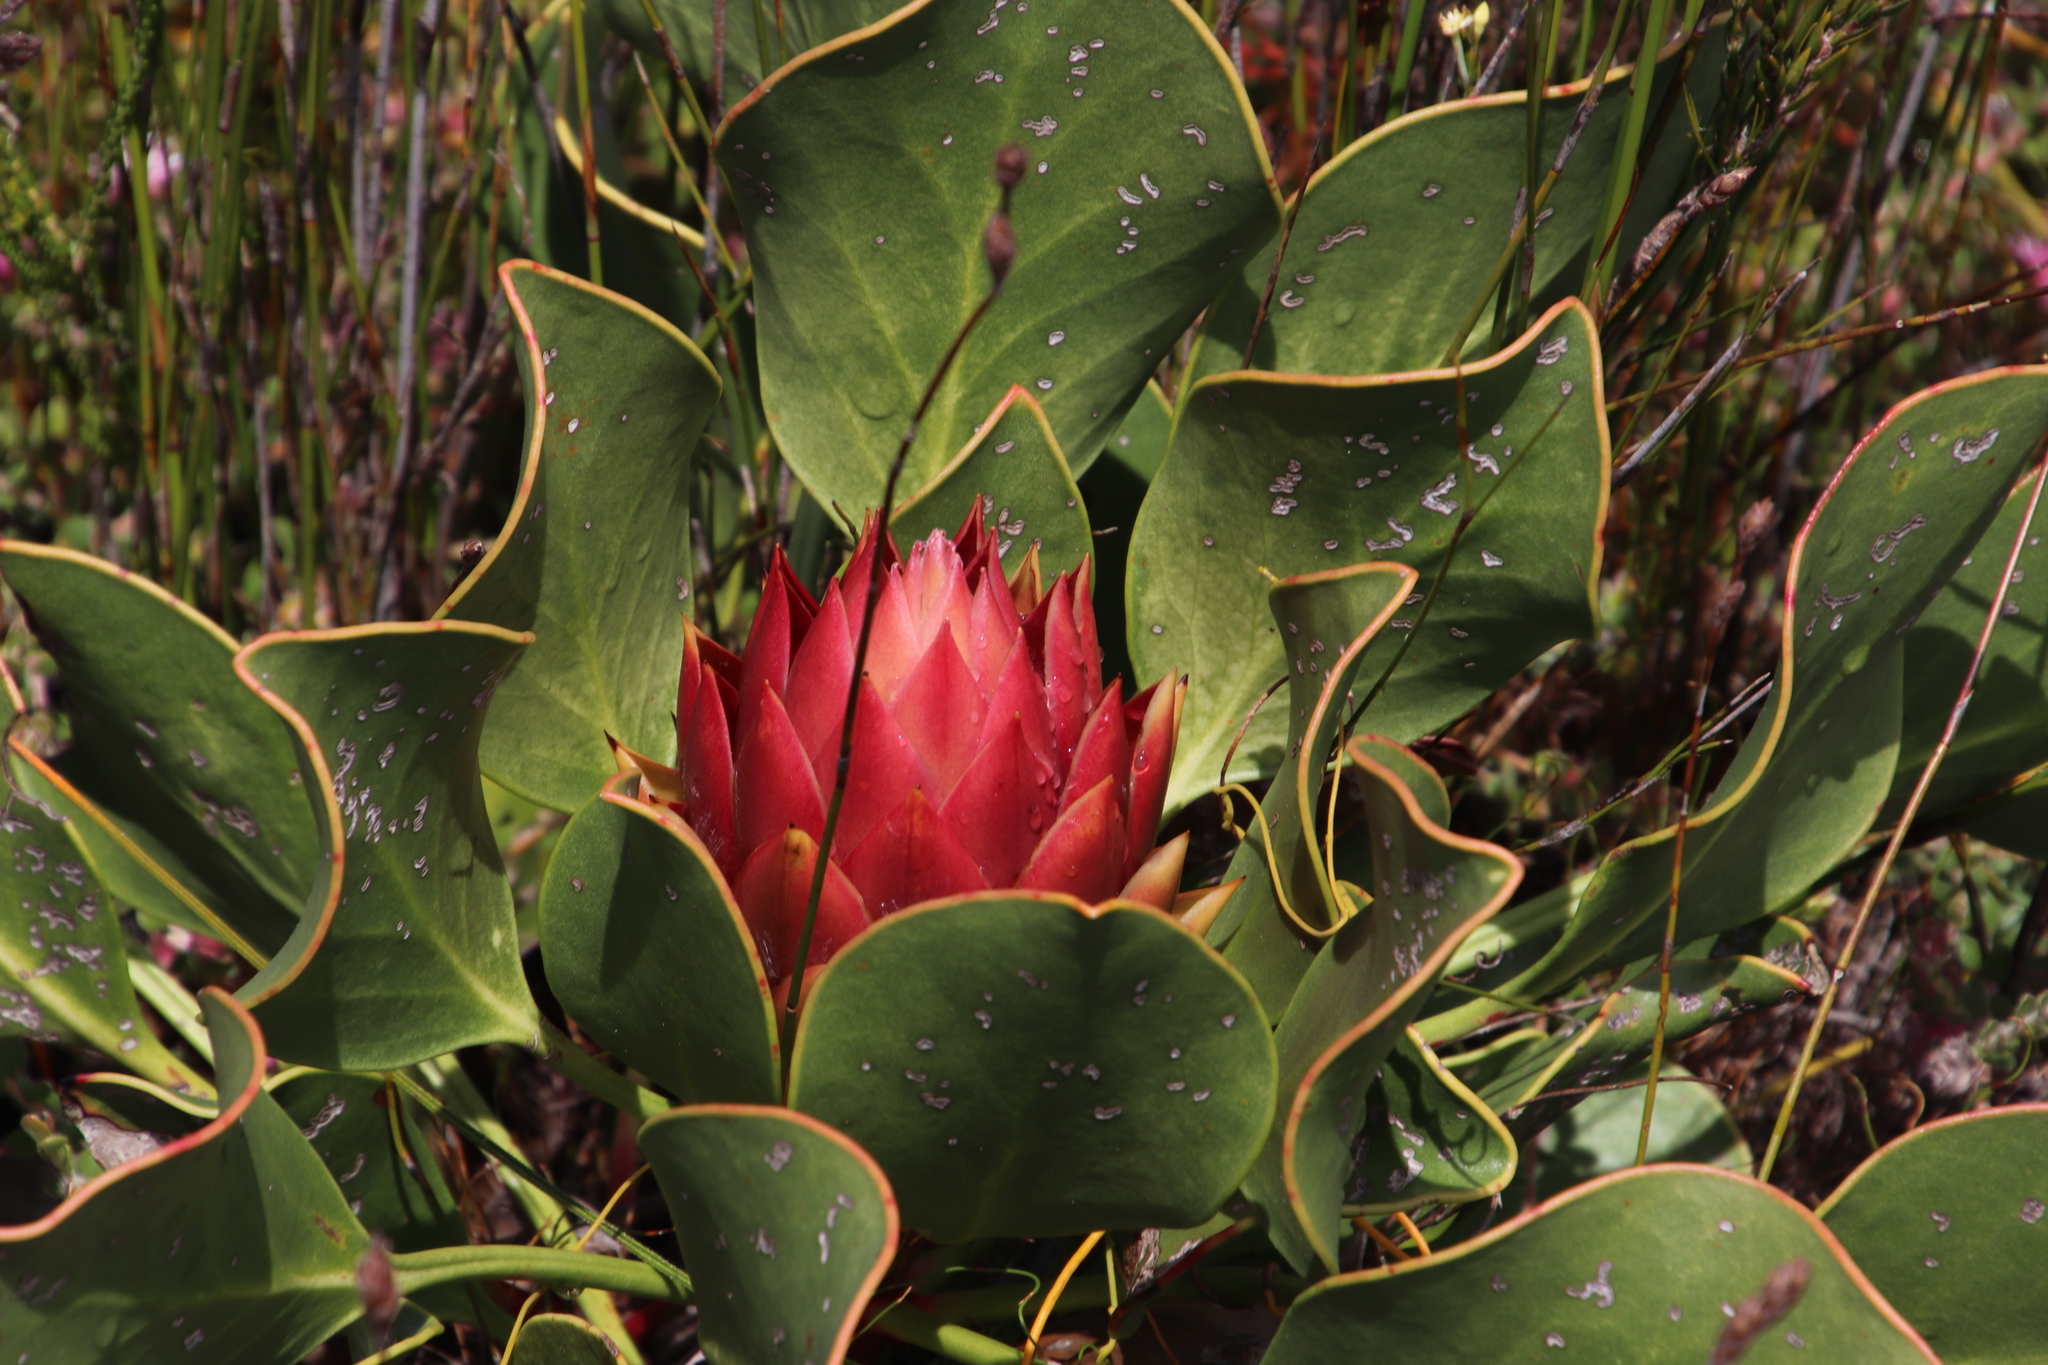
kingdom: Plantae
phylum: Tracheophyta
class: Magnoliopsida
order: Proteales
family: Proteaceae
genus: Protea
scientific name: Protea cynaroides
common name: King protea
